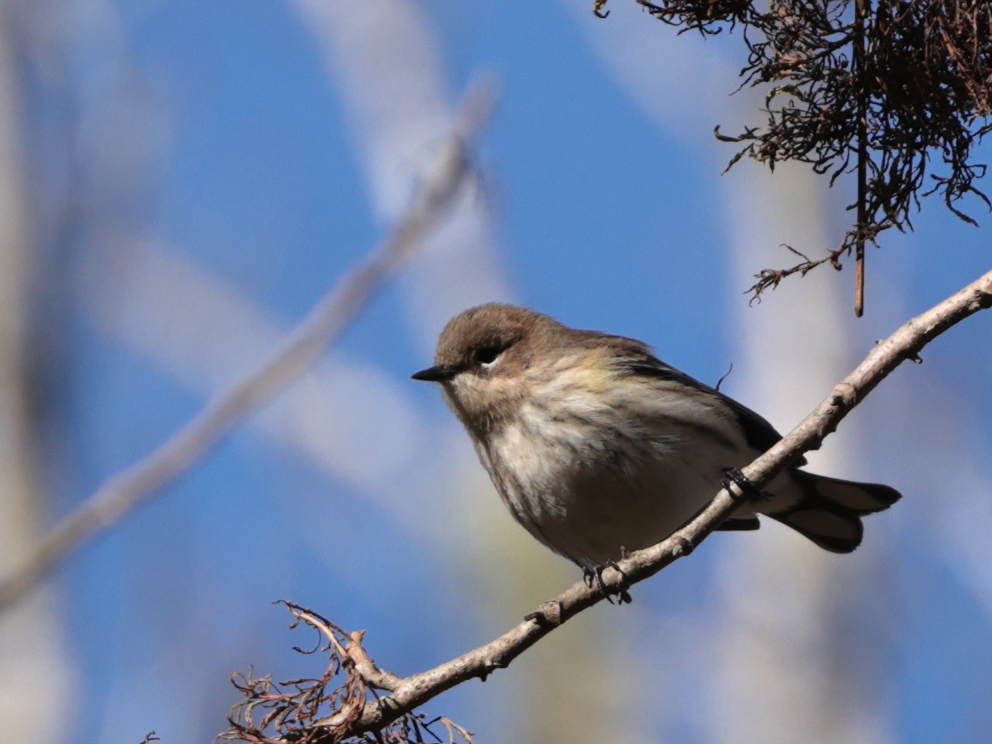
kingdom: Animalia
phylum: Chordata
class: Aves
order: Passeriformes
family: Parulidae
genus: Setophaga
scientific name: Setophaga coronata
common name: Myrtle warbler
